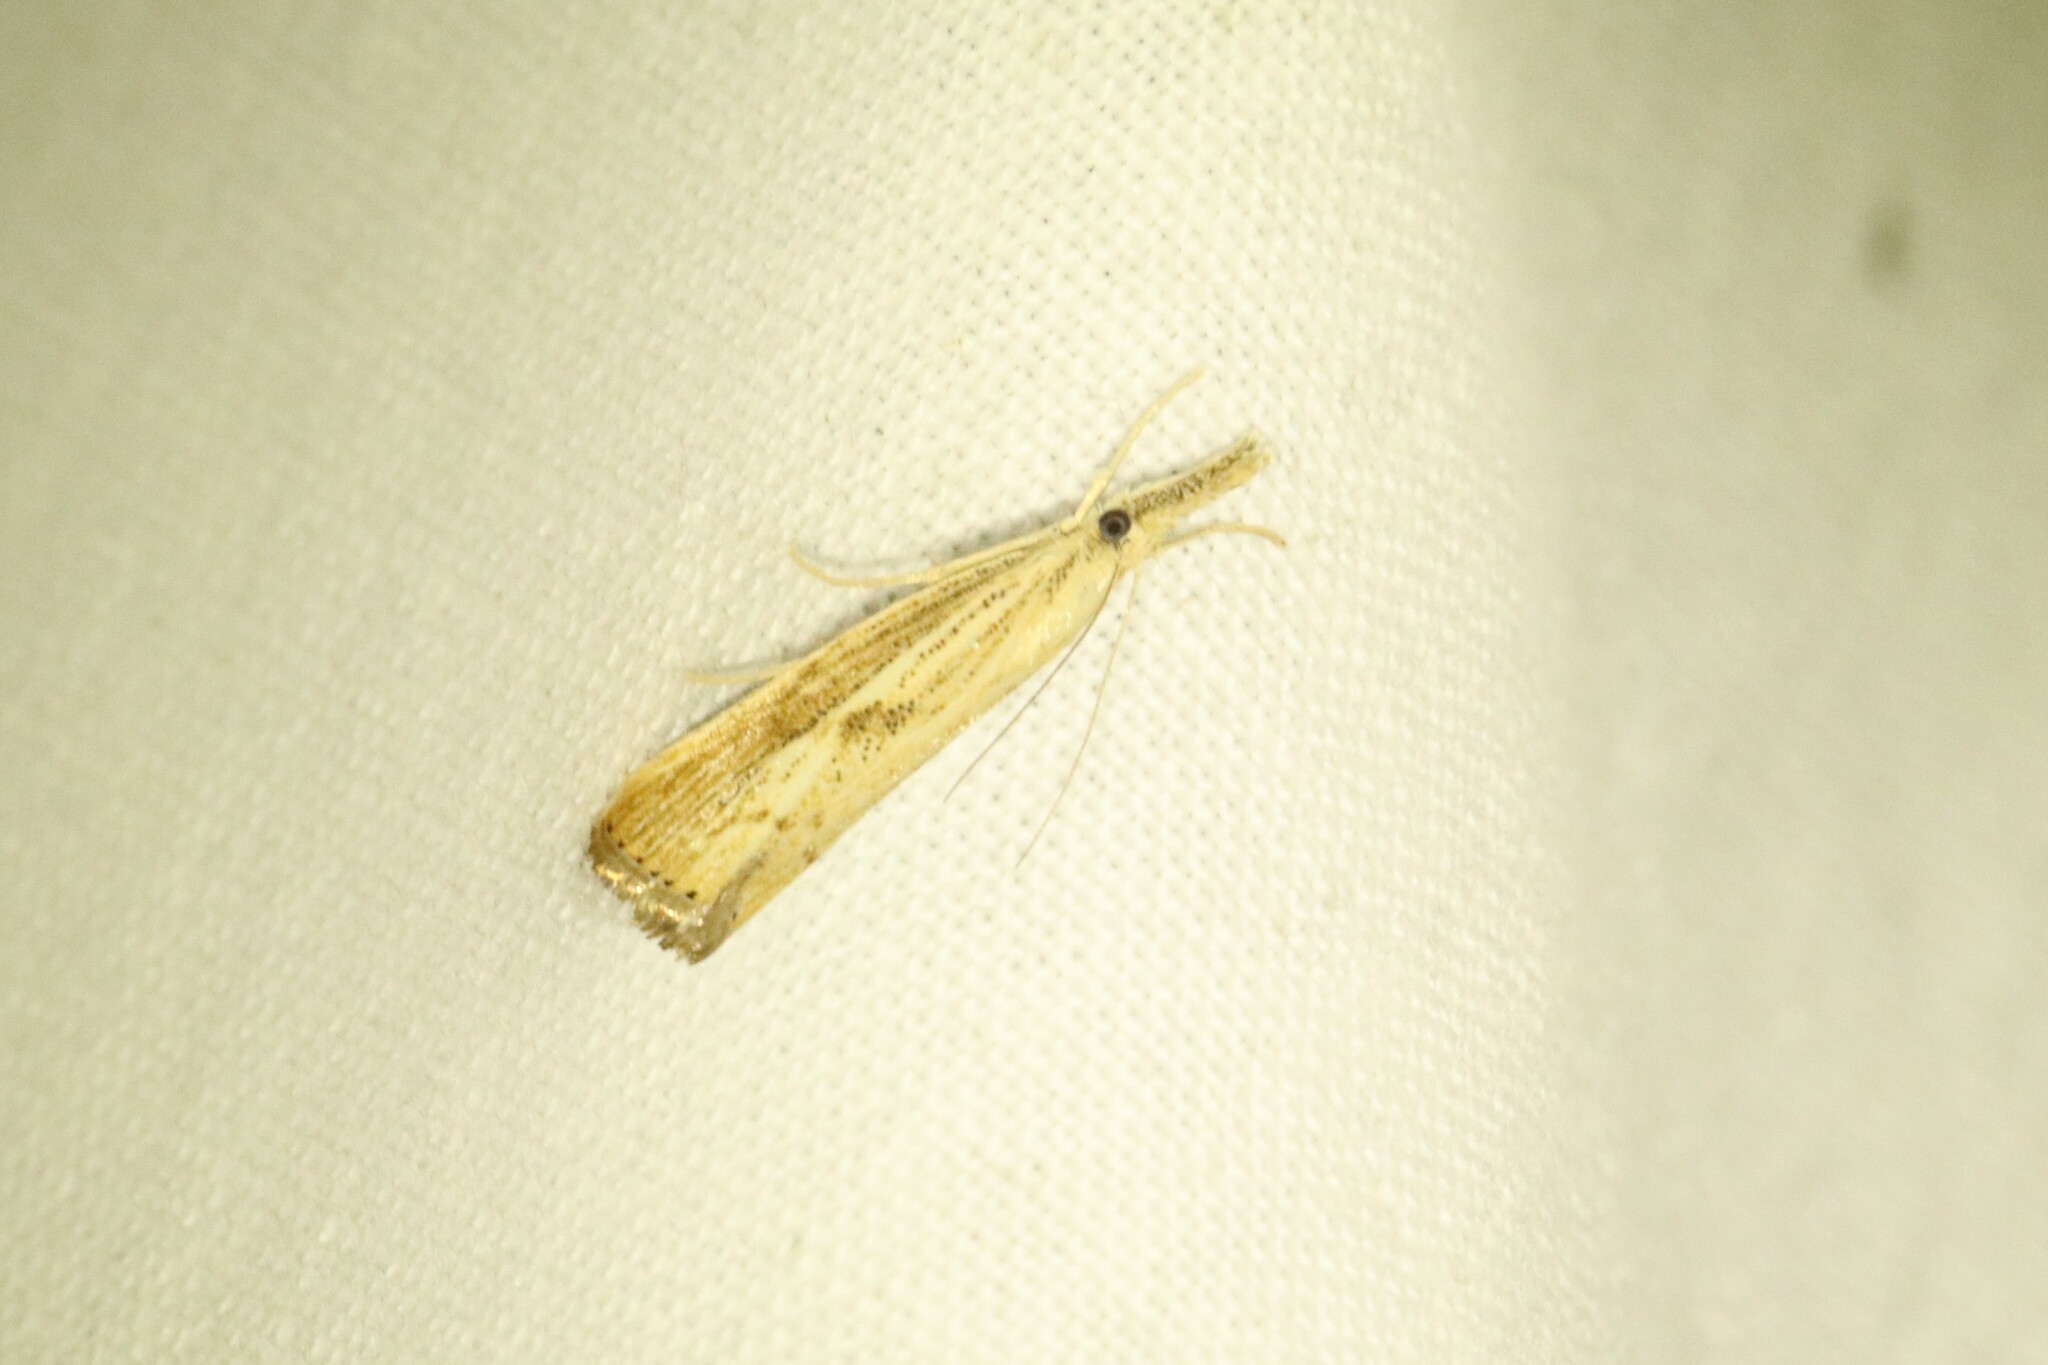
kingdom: Animalia
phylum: Arthropoda
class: Insecta
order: Lepidoptera
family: Crambidae
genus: Agriphila
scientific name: Agriphila ruricolellus
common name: Lesser vagabond sod webworm
